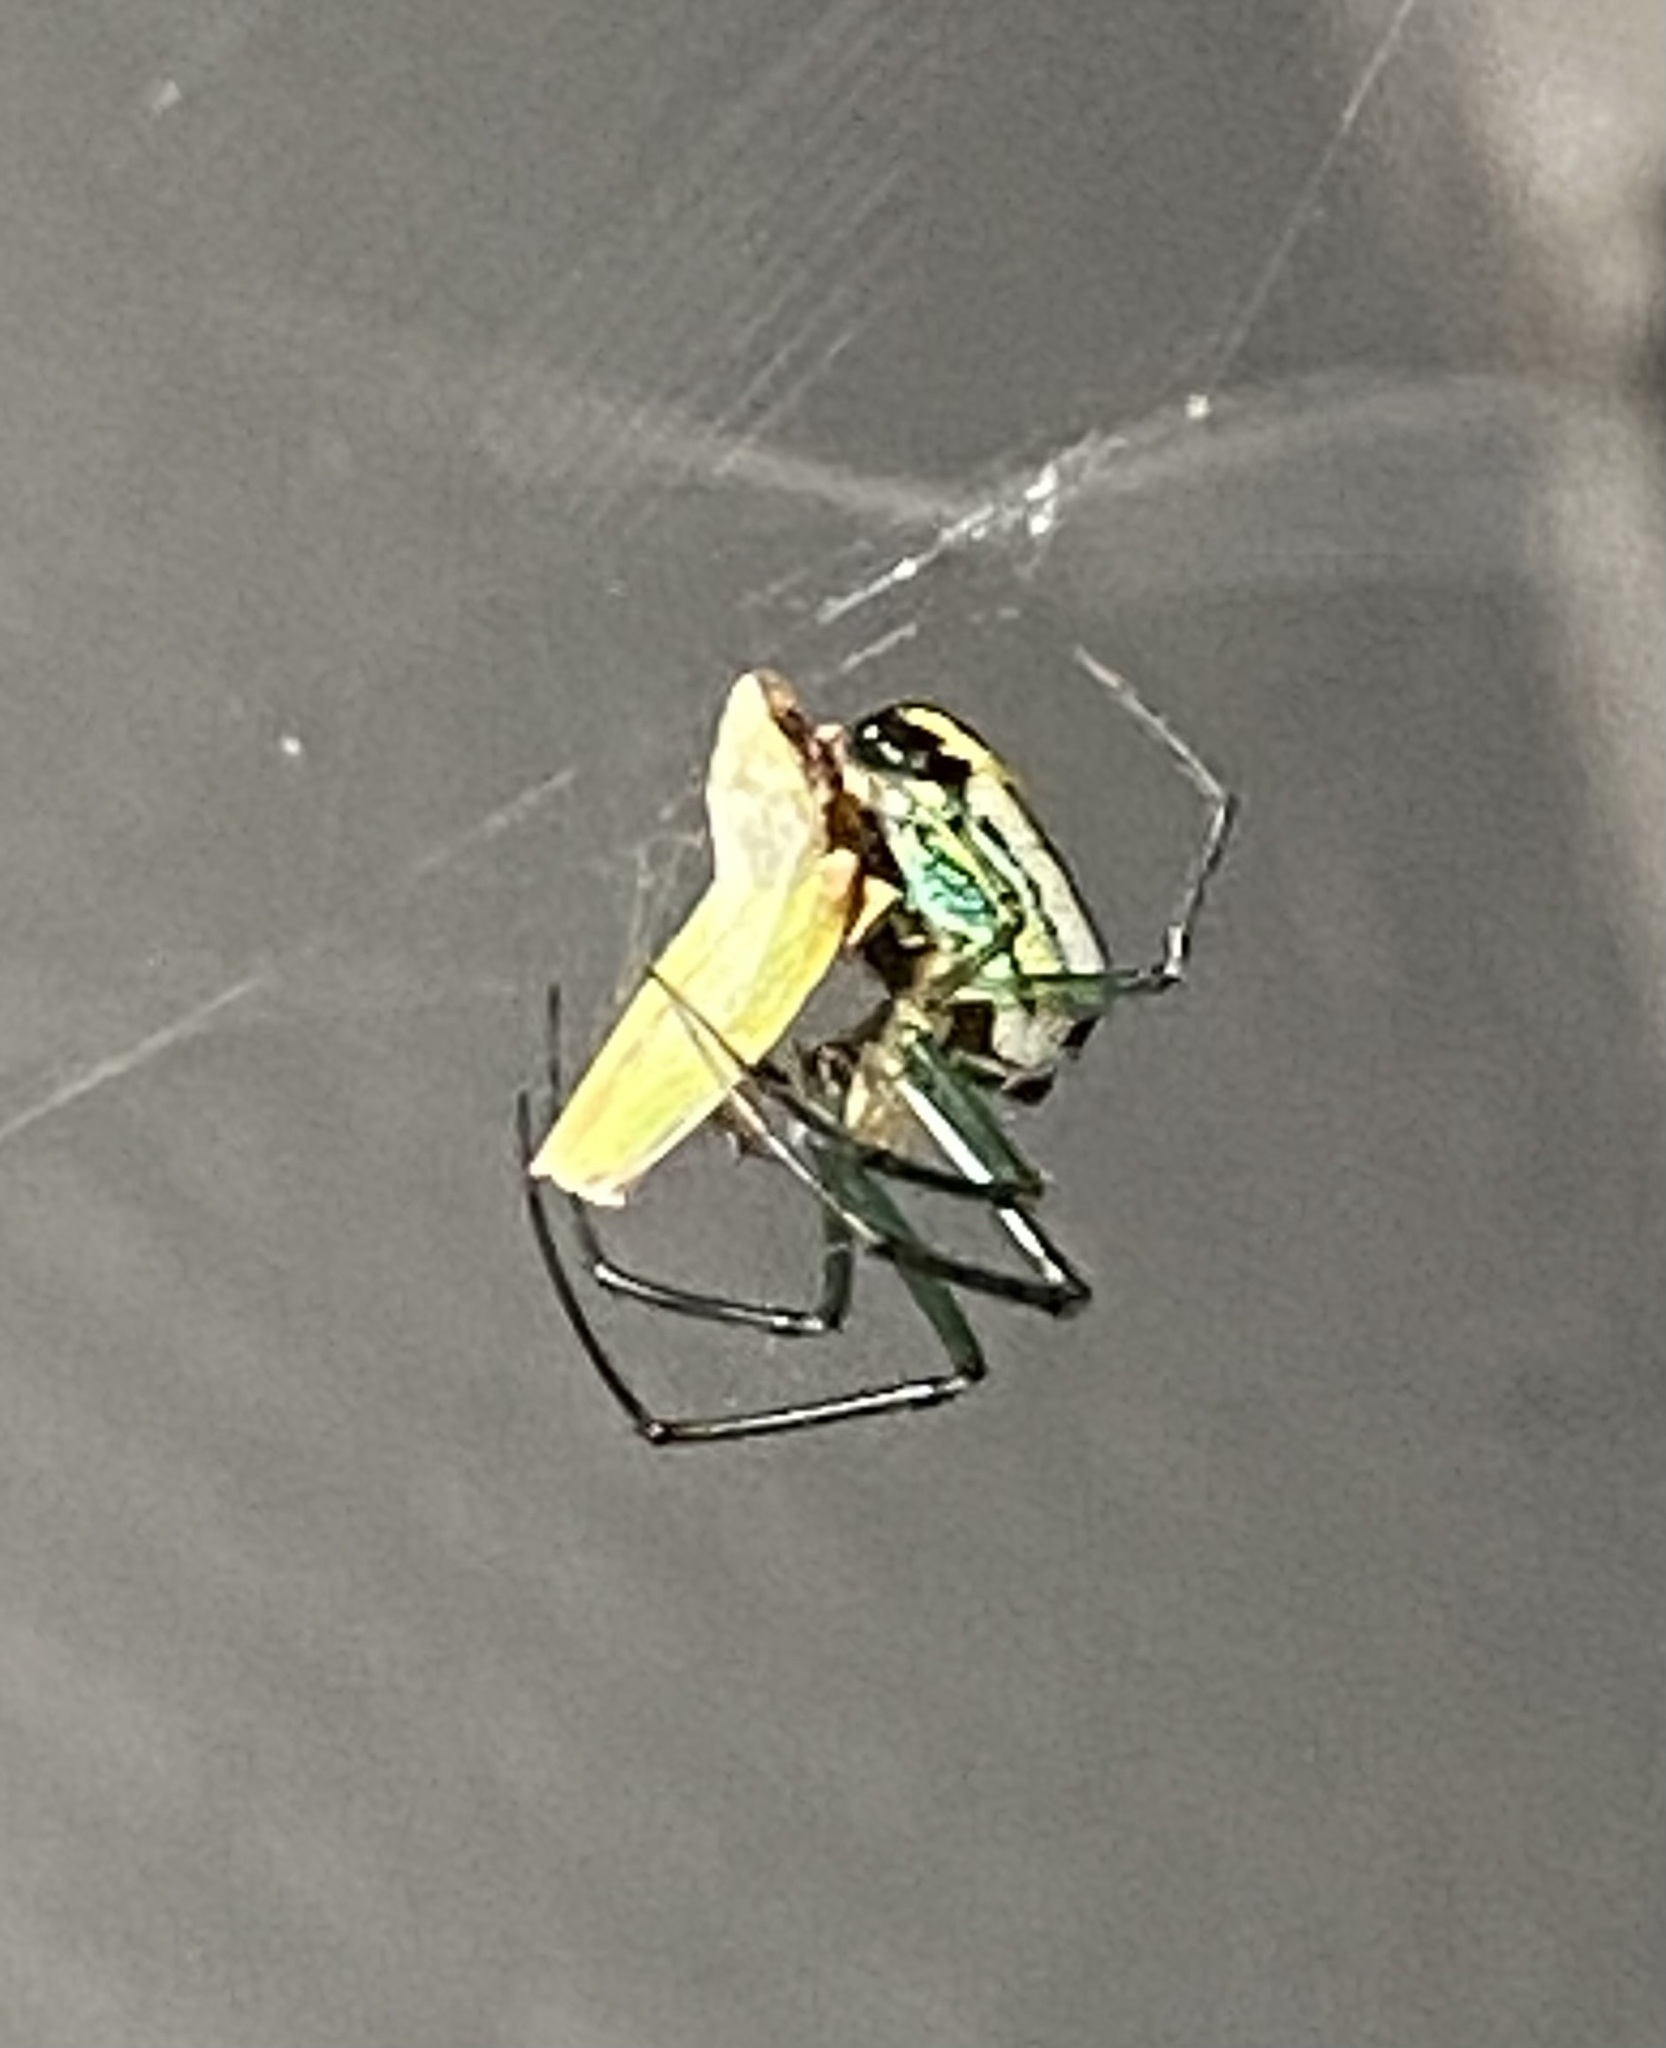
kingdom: Animalia
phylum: Arthropoda
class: Arachnida
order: Araneae
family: Tetragnathidae
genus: Leucauge
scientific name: Leucauge venusta
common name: Longjawed orb weavers
